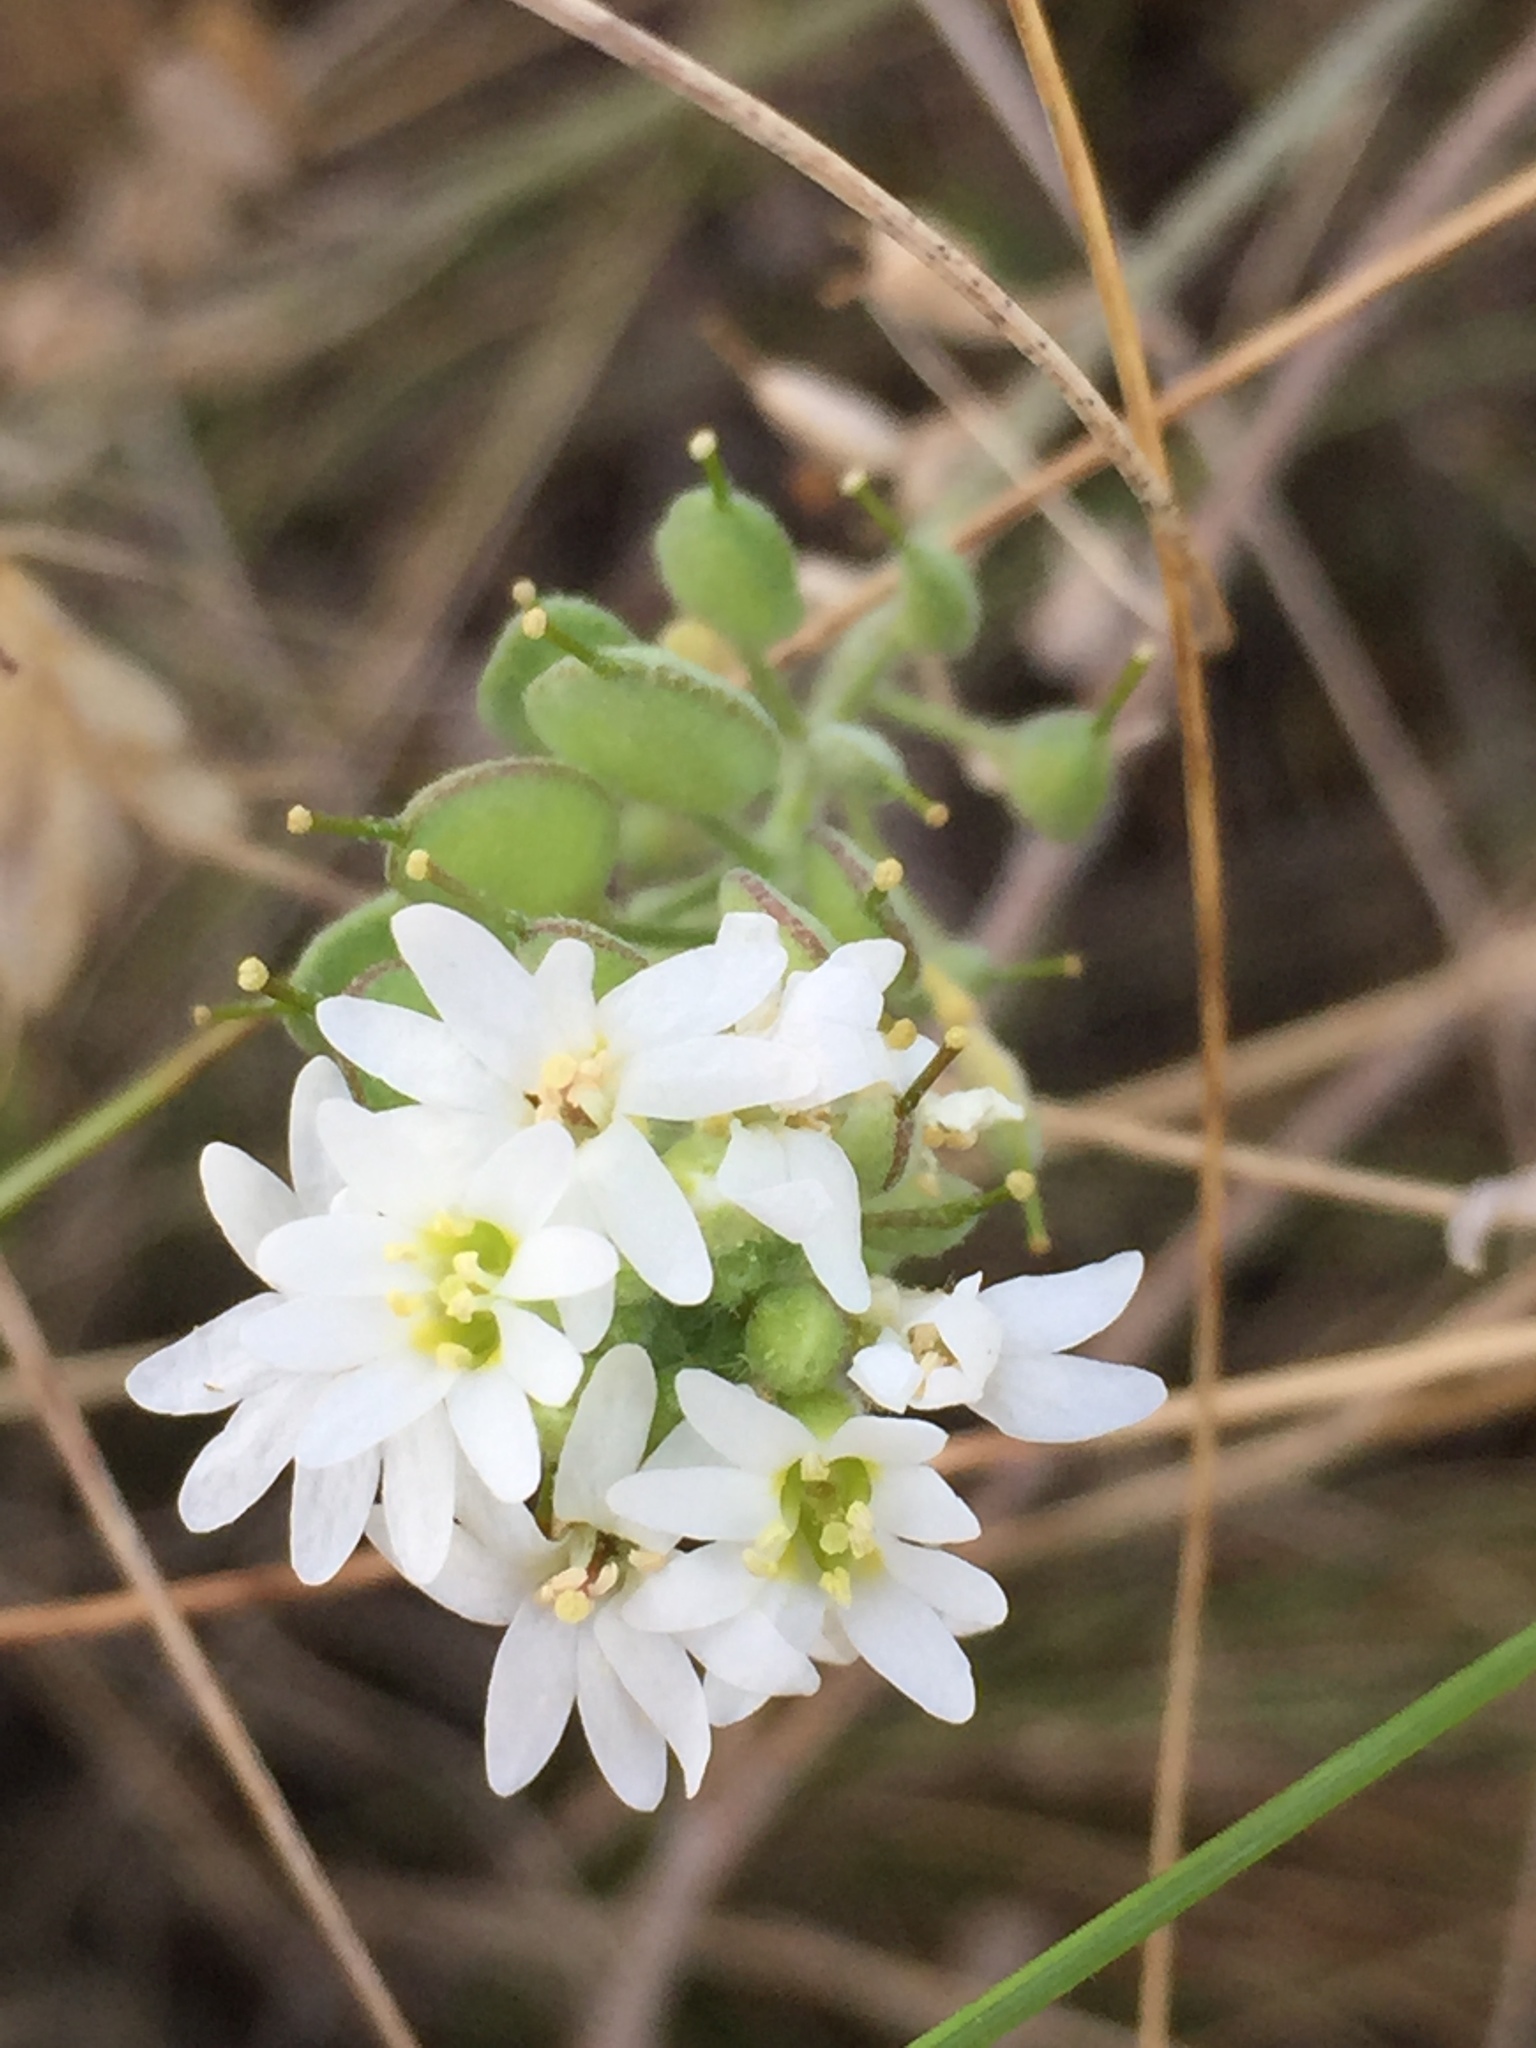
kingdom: Plantae
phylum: Tracheophyta
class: Magnoliopsida
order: Brassicales
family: Brassicaceae
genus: Berteroa
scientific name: Berteroa incana
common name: Hoary alison
